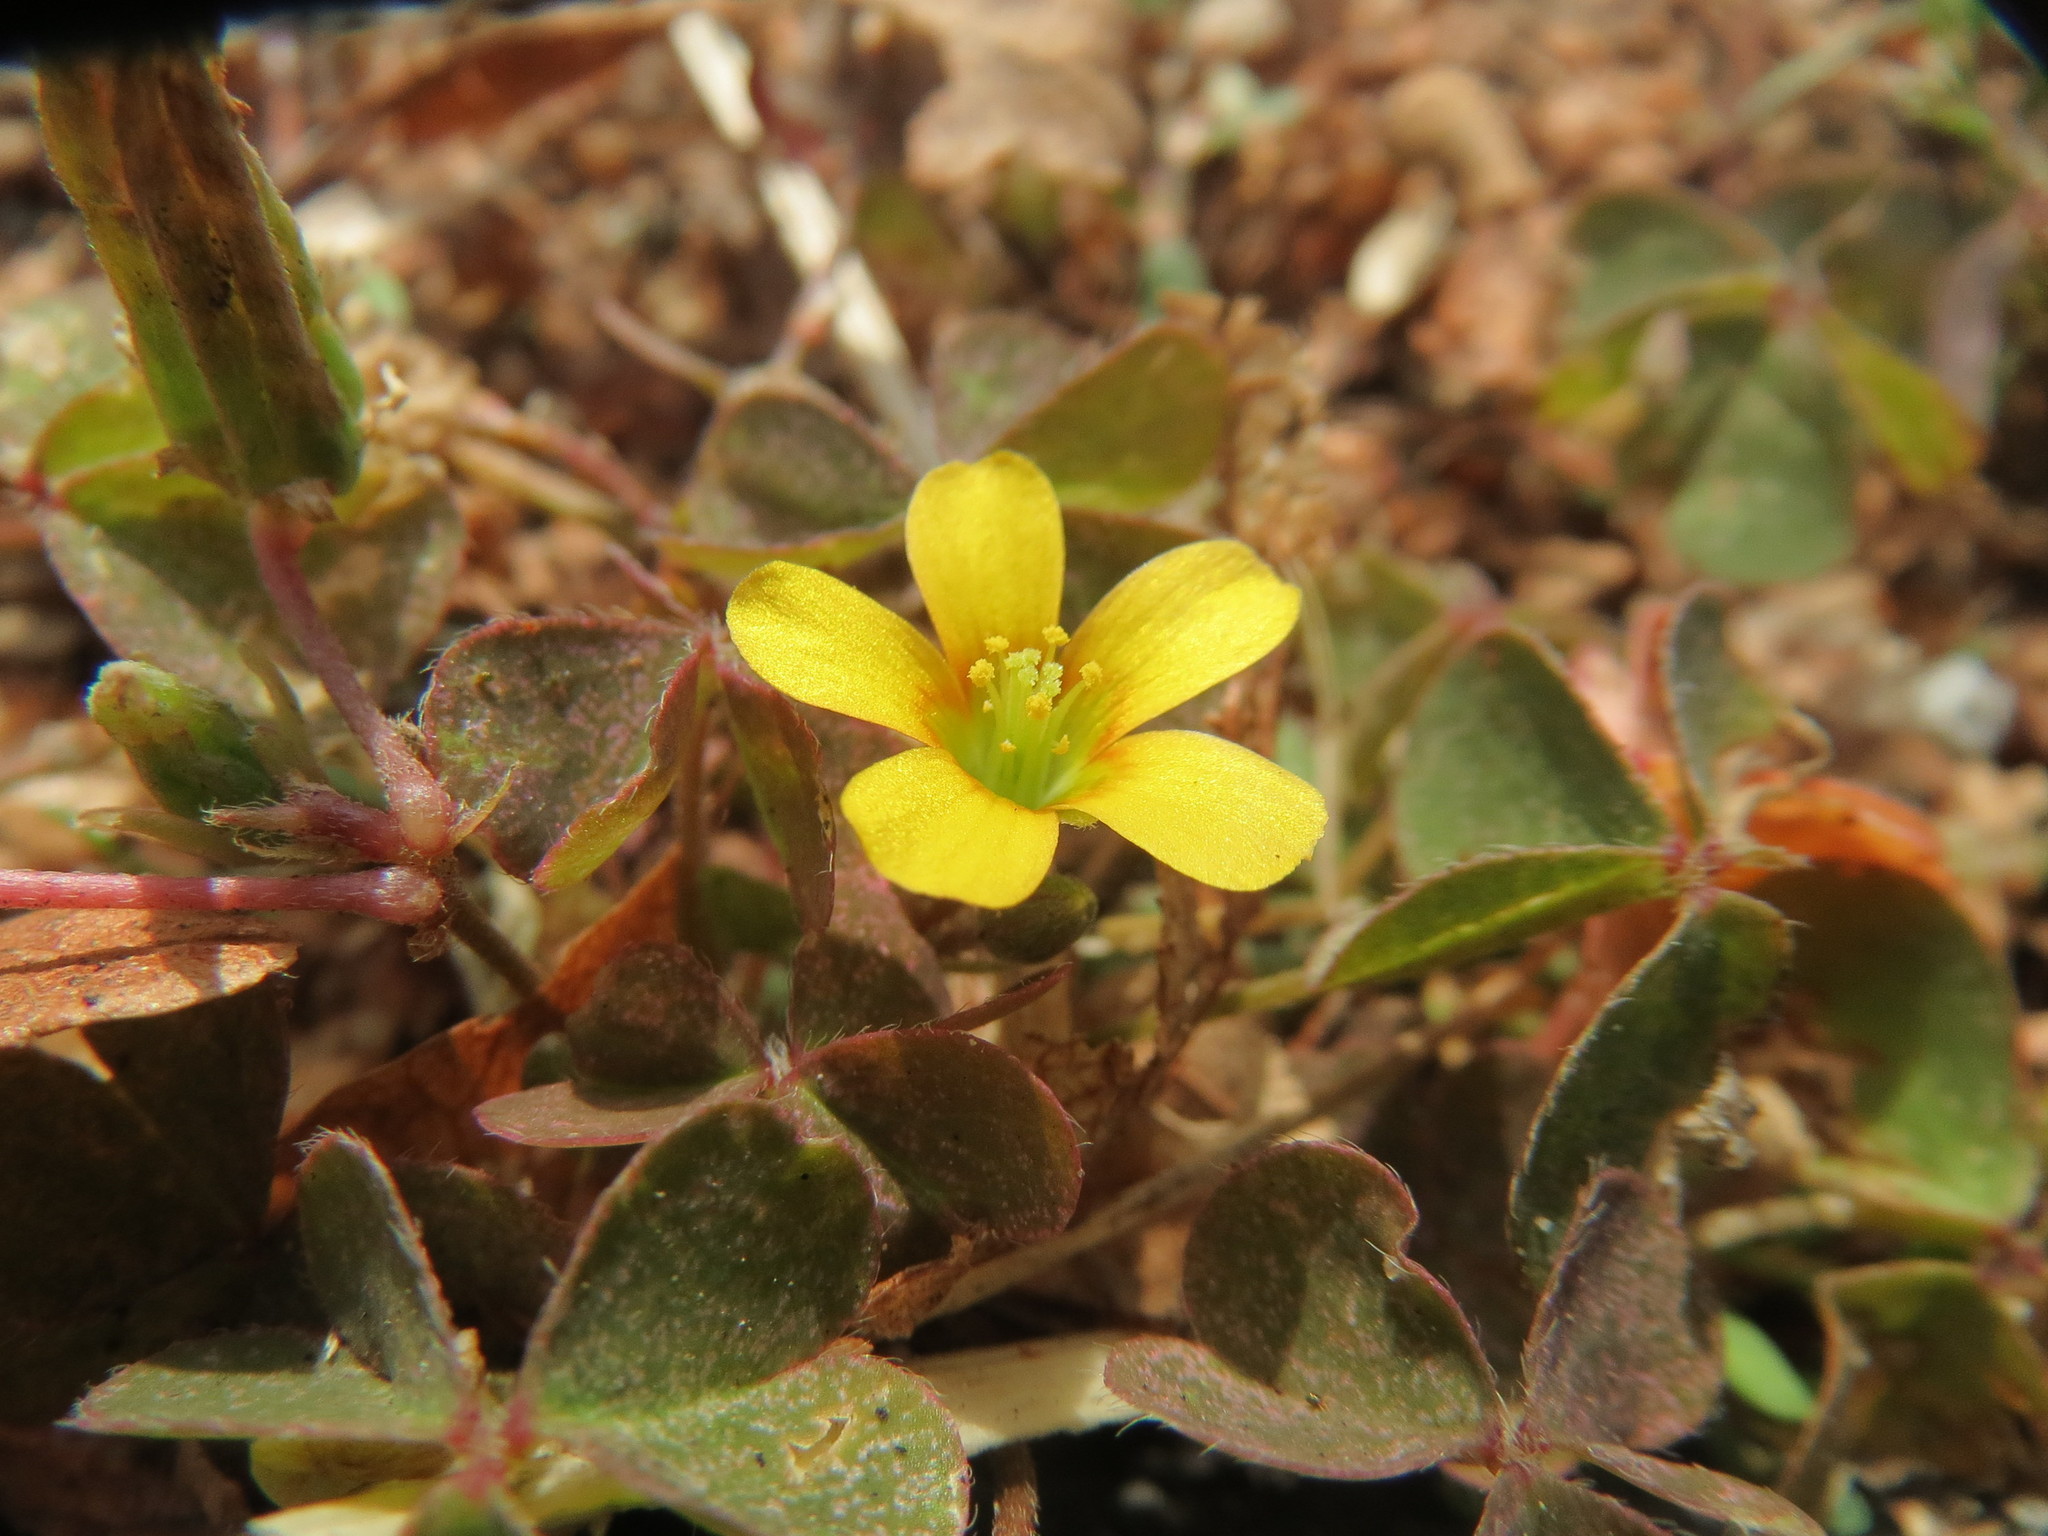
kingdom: Plantae
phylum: Tracheophyta
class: Magnoliopsida
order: Oxalidales
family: Oxalidaceae
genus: Oxalis
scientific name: Oxalis corniculata
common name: Procumbent yellow-sorrel
